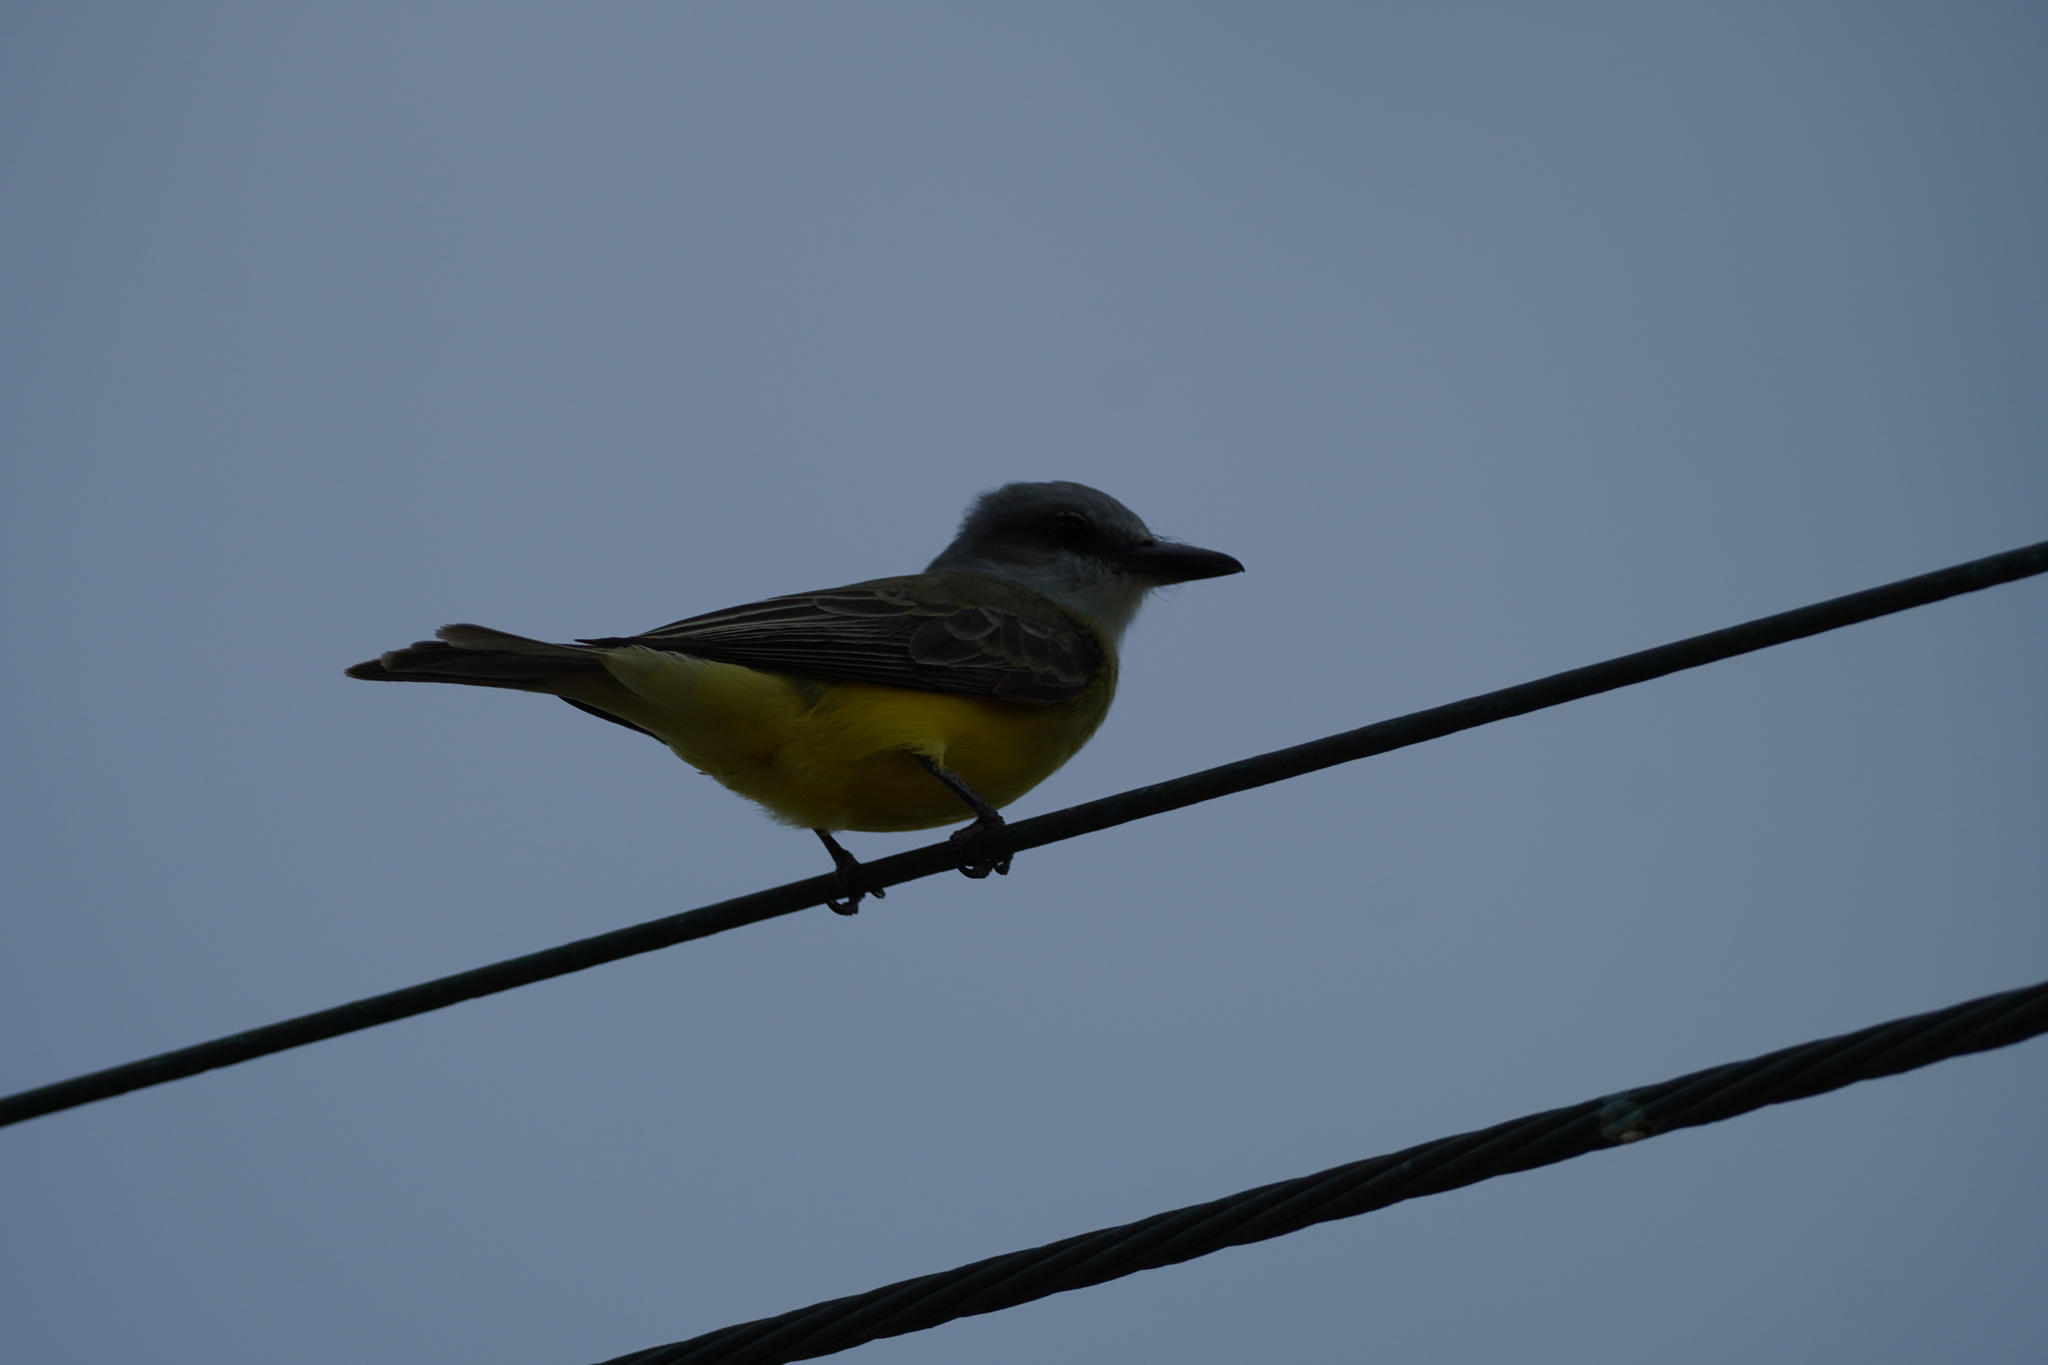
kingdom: Animalia
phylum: Chordata
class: Aves
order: Passeriformes
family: Tyrannidae
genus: Tyrannus
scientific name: Tyrannus
